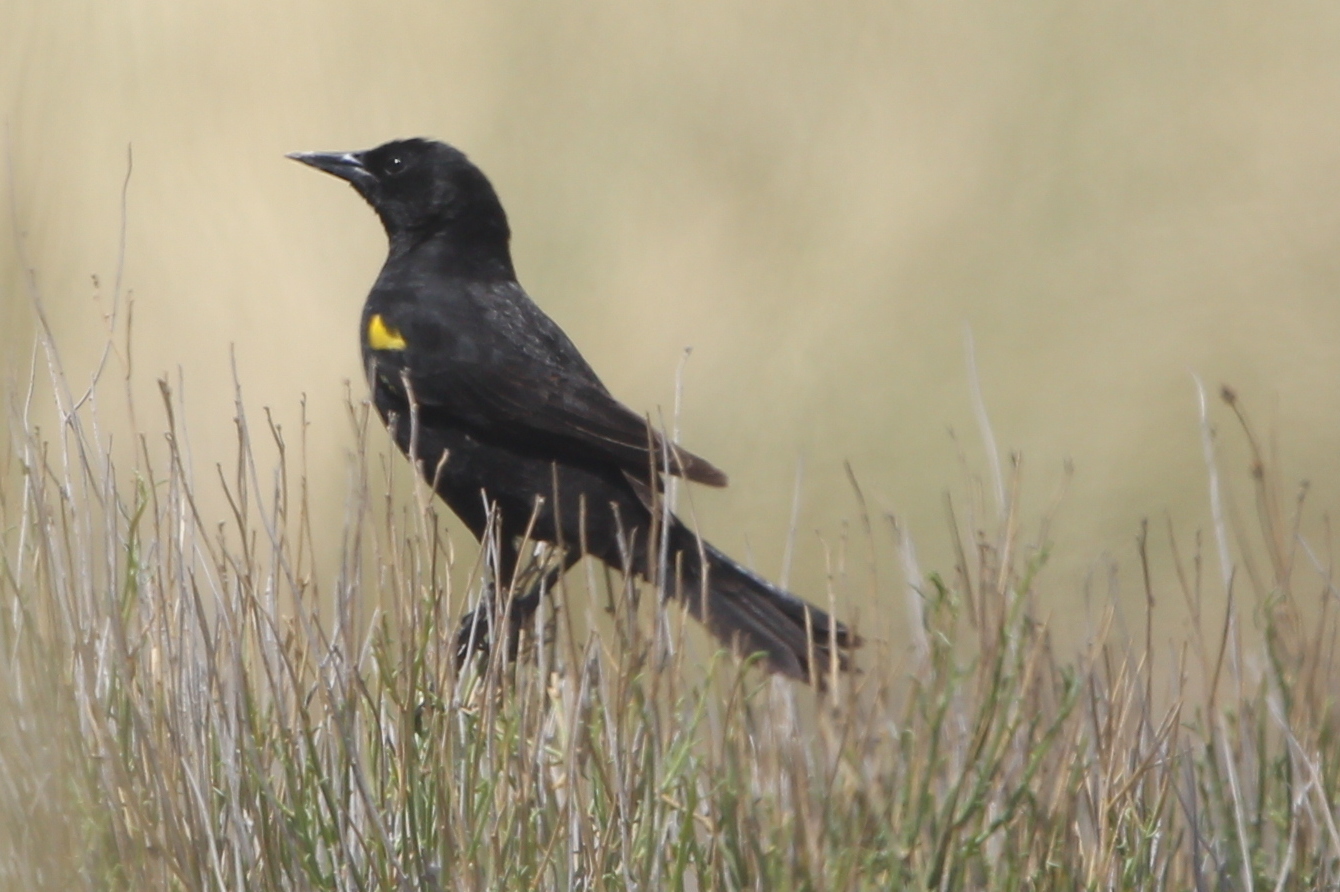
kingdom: Animalia
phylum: Chordata
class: Aves
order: Passeriformes
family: Icteridae
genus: Agelasticus
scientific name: Agelasticus thilius
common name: Yellow-winged blackbird
